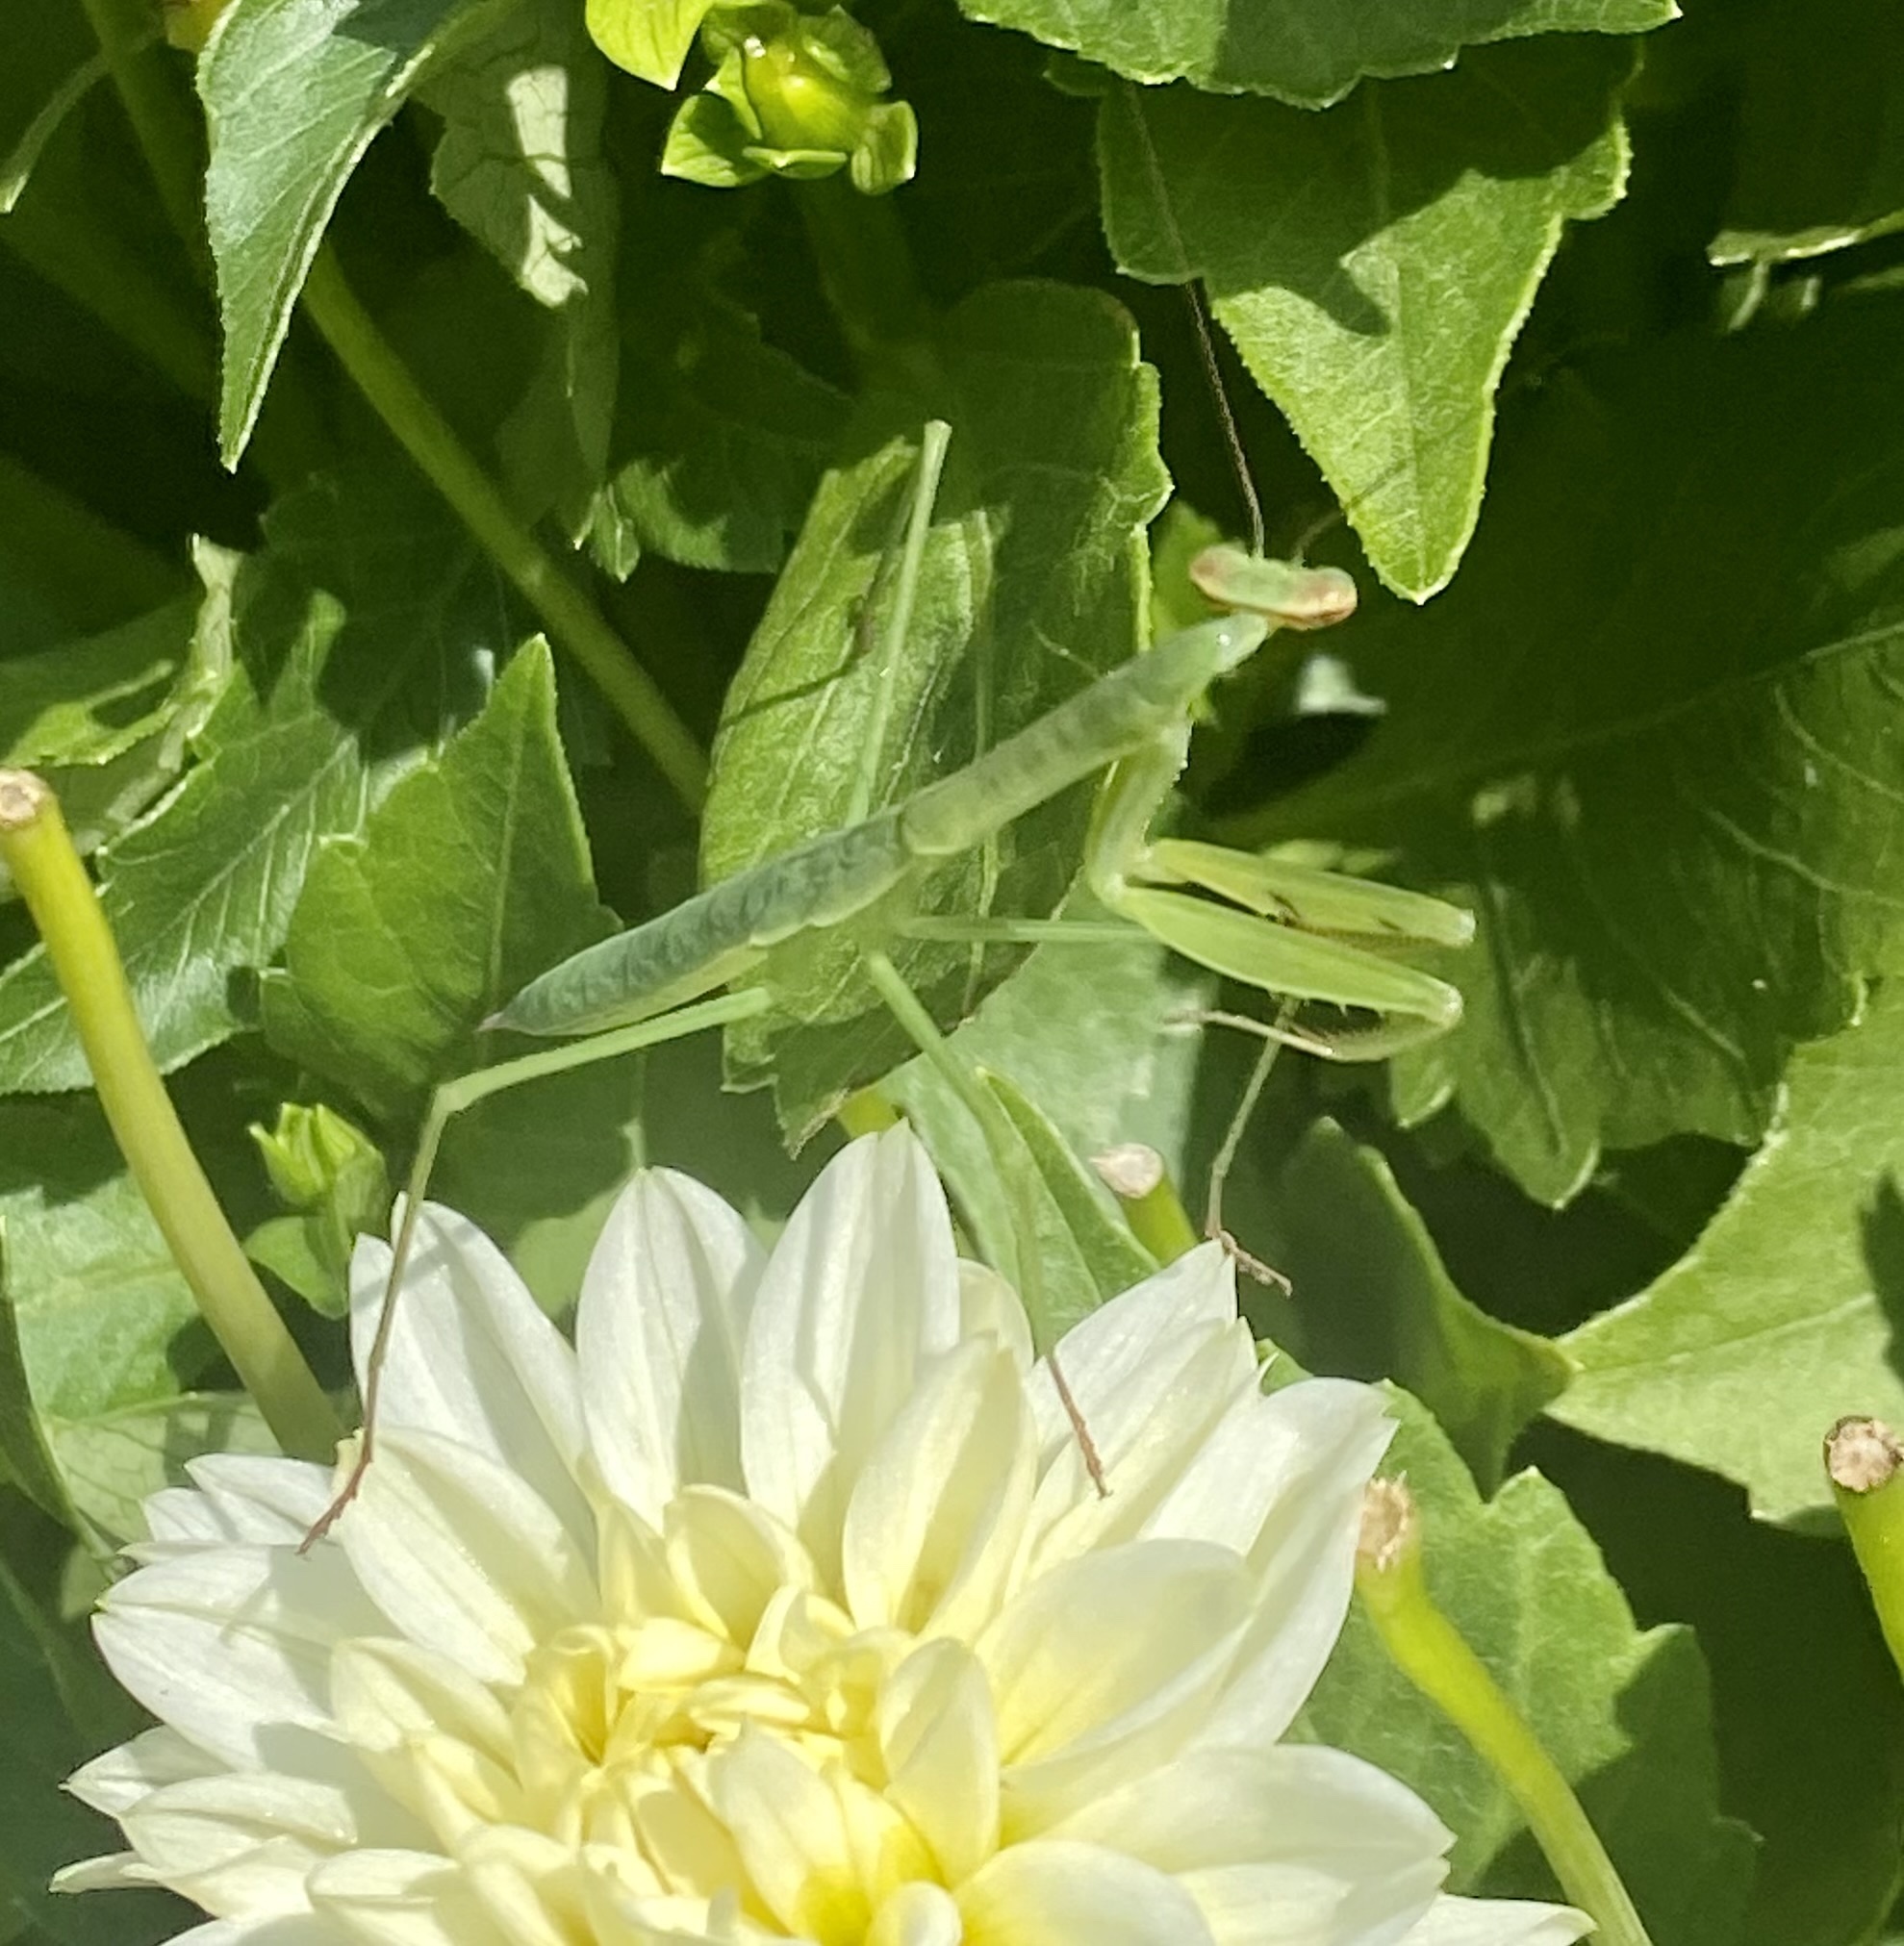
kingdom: Animalia
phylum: Arthropoda
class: Insecta
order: Mantodea
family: Mantidae
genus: Tenodera
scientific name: Tenodera sinensis
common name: Chinese mantis
